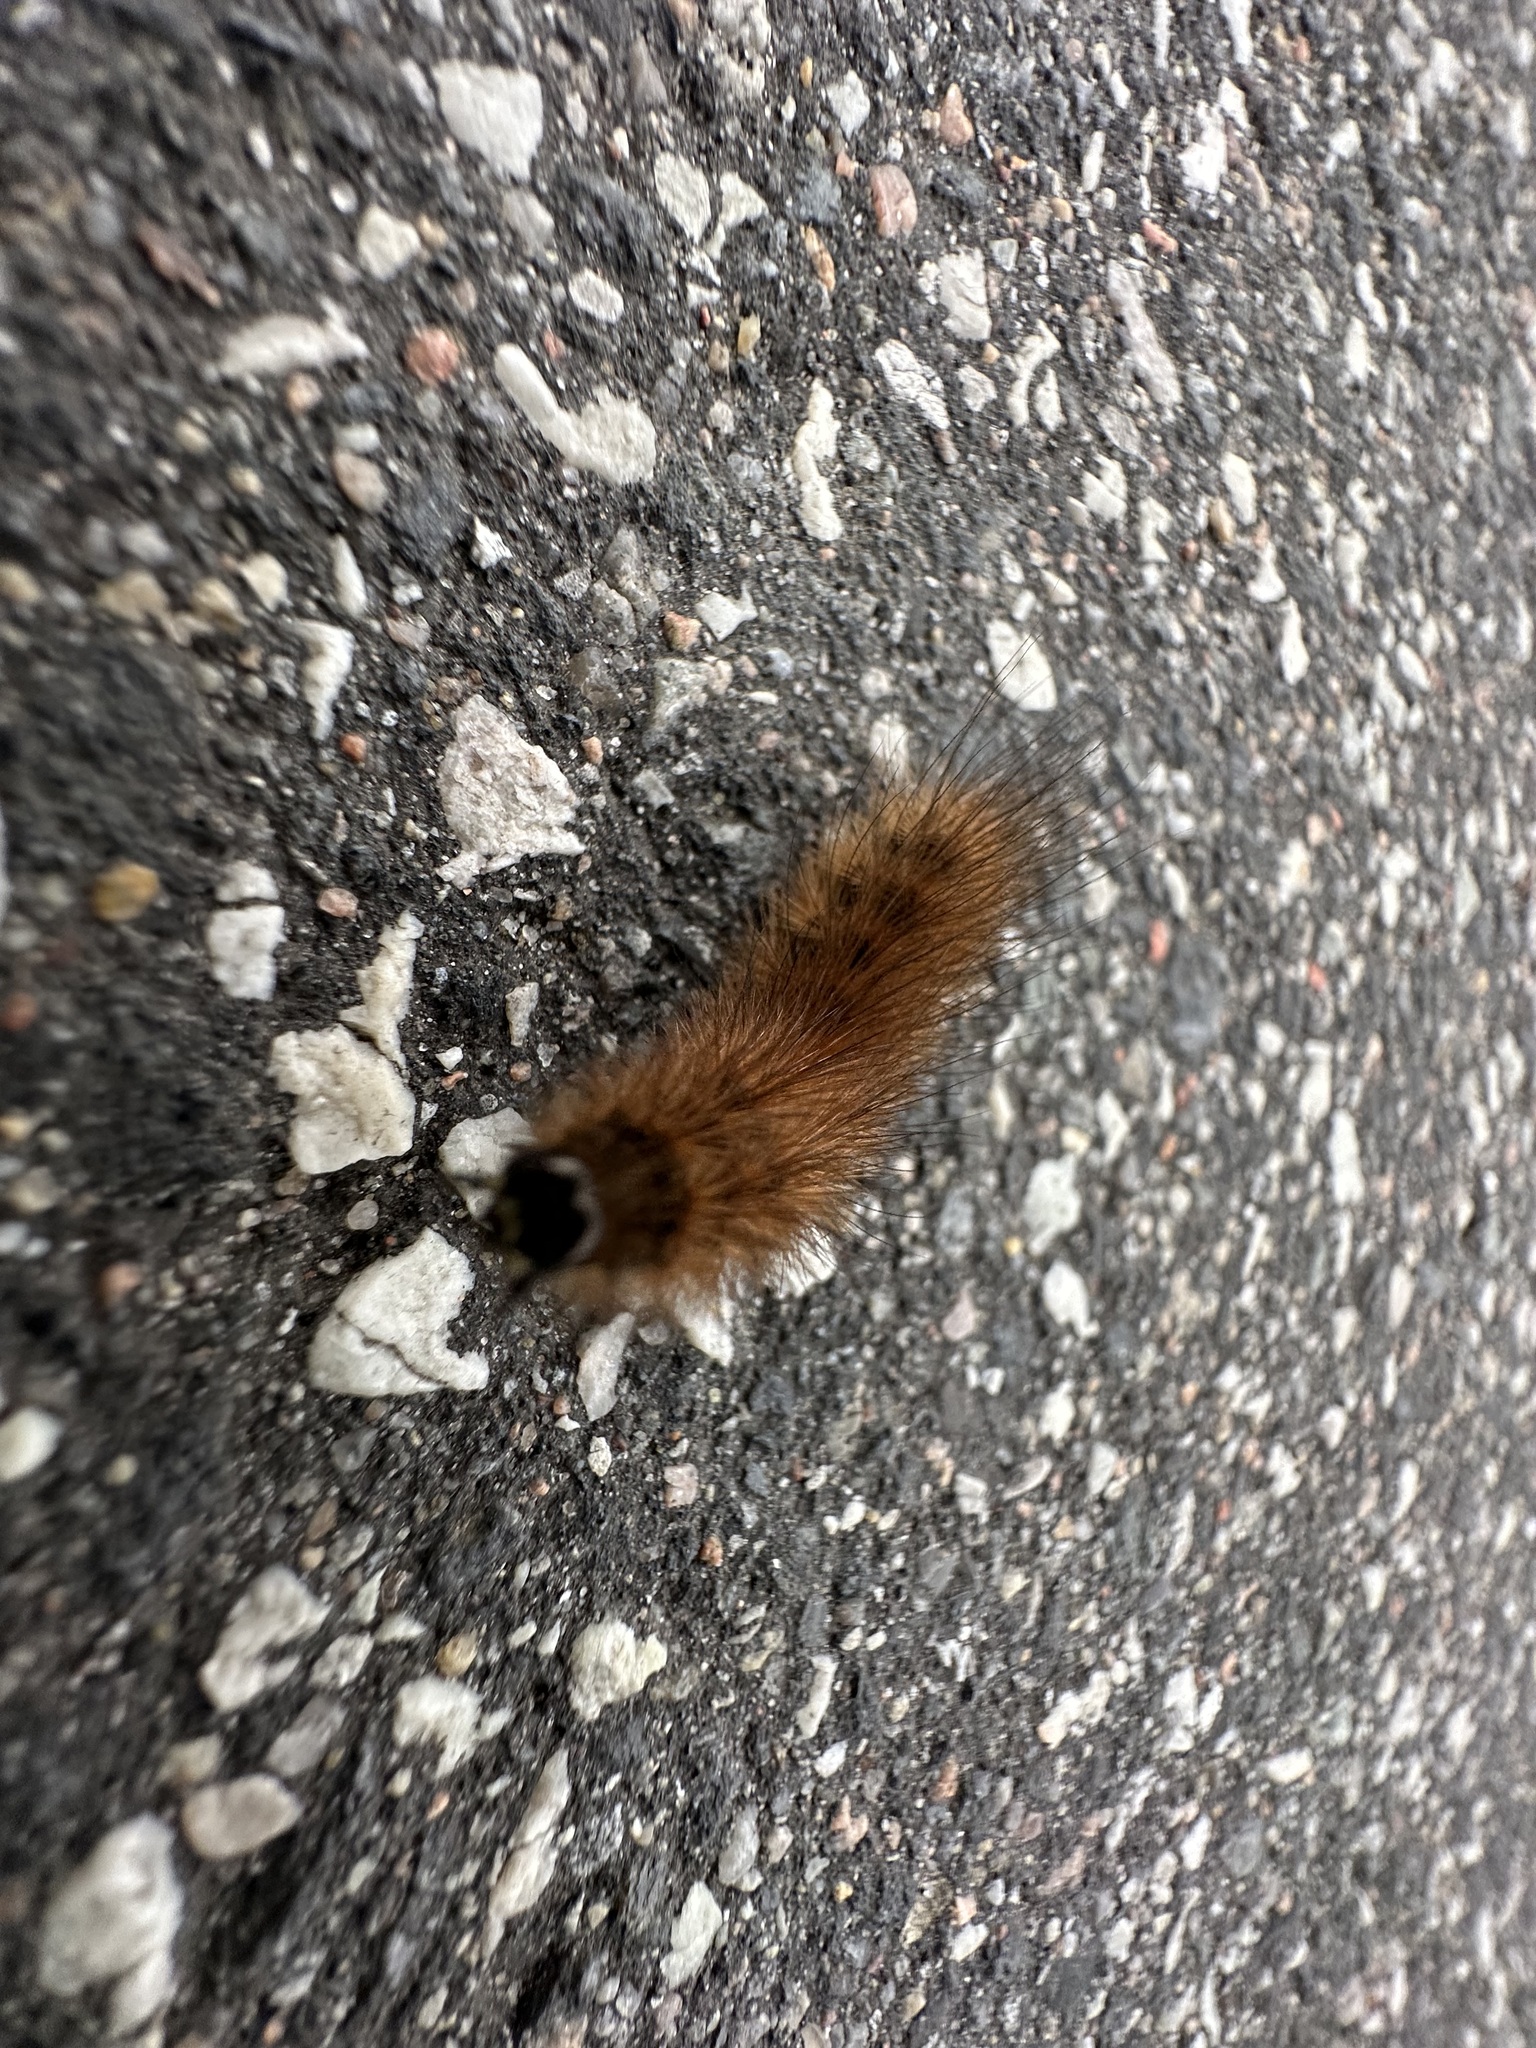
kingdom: Animalia
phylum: Arthropoda
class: Insecta
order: Lepidoptera
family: Erebidae
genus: Phragmatobia
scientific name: Phragmatobia fuliginosa
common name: Ruby tiger
